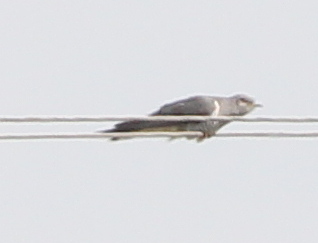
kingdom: Animalia
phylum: Chordata
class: Aves
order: Cuculiformes
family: Cuculidae
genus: Cuculus
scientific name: Cuculus canorus
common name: Common cuckoo
